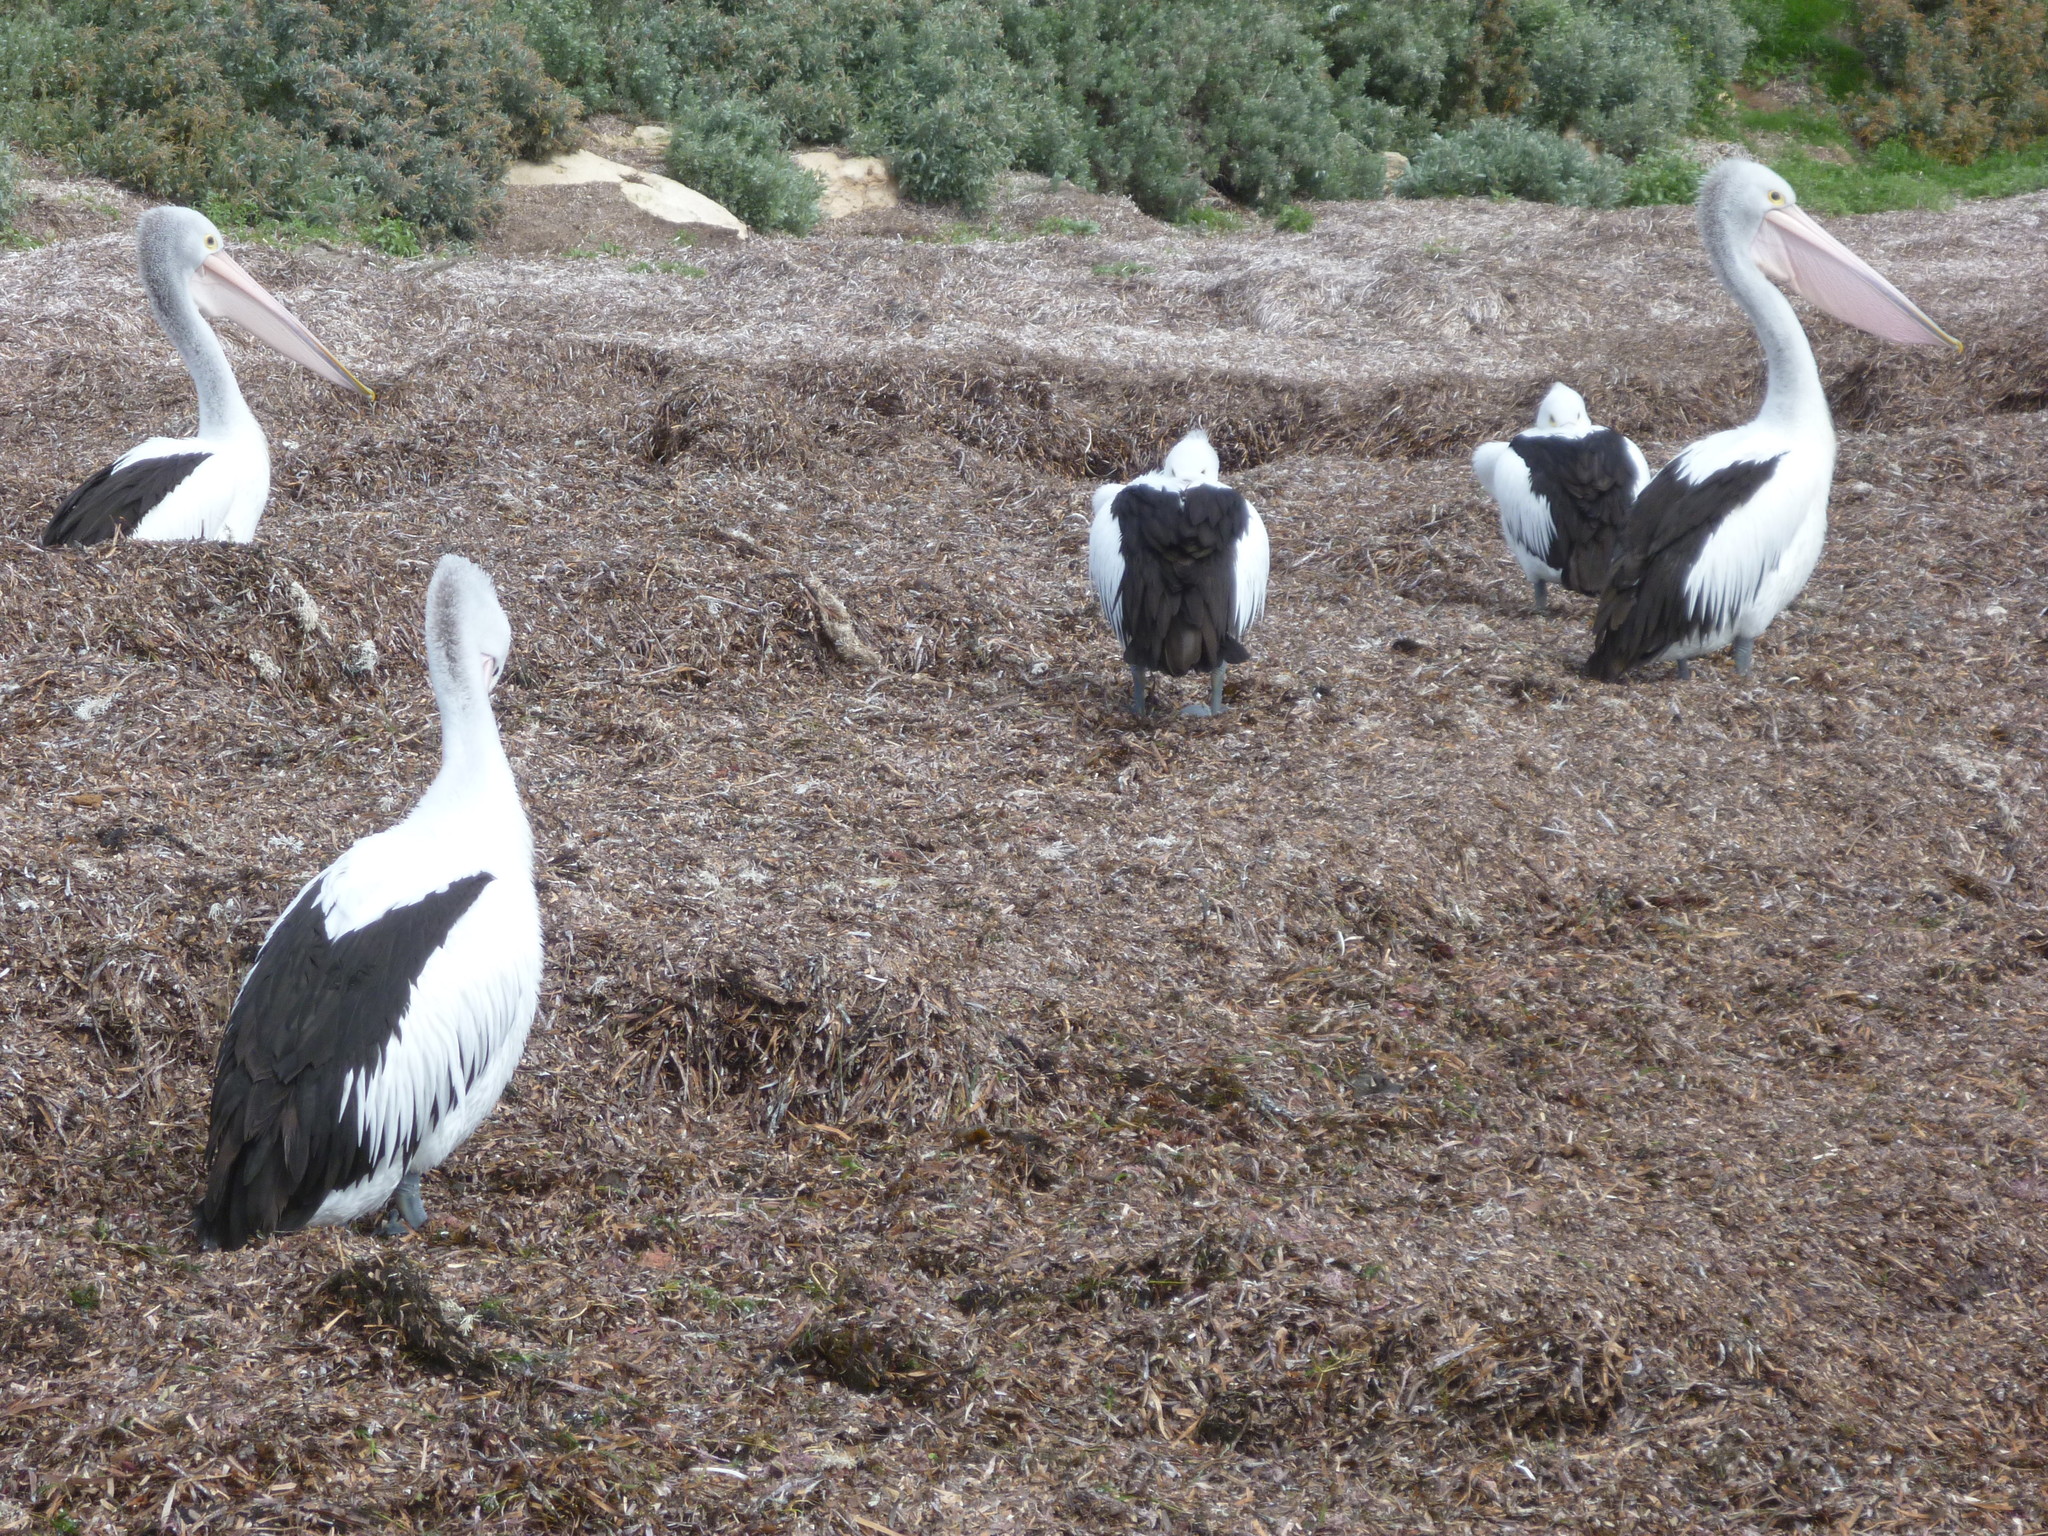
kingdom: Animalia
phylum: Chordata
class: Aves
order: Pelecaniformes
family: Pelecanidae
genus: Pelecanus
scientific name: Pelecanus conspicillatus
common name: Australian pelican
